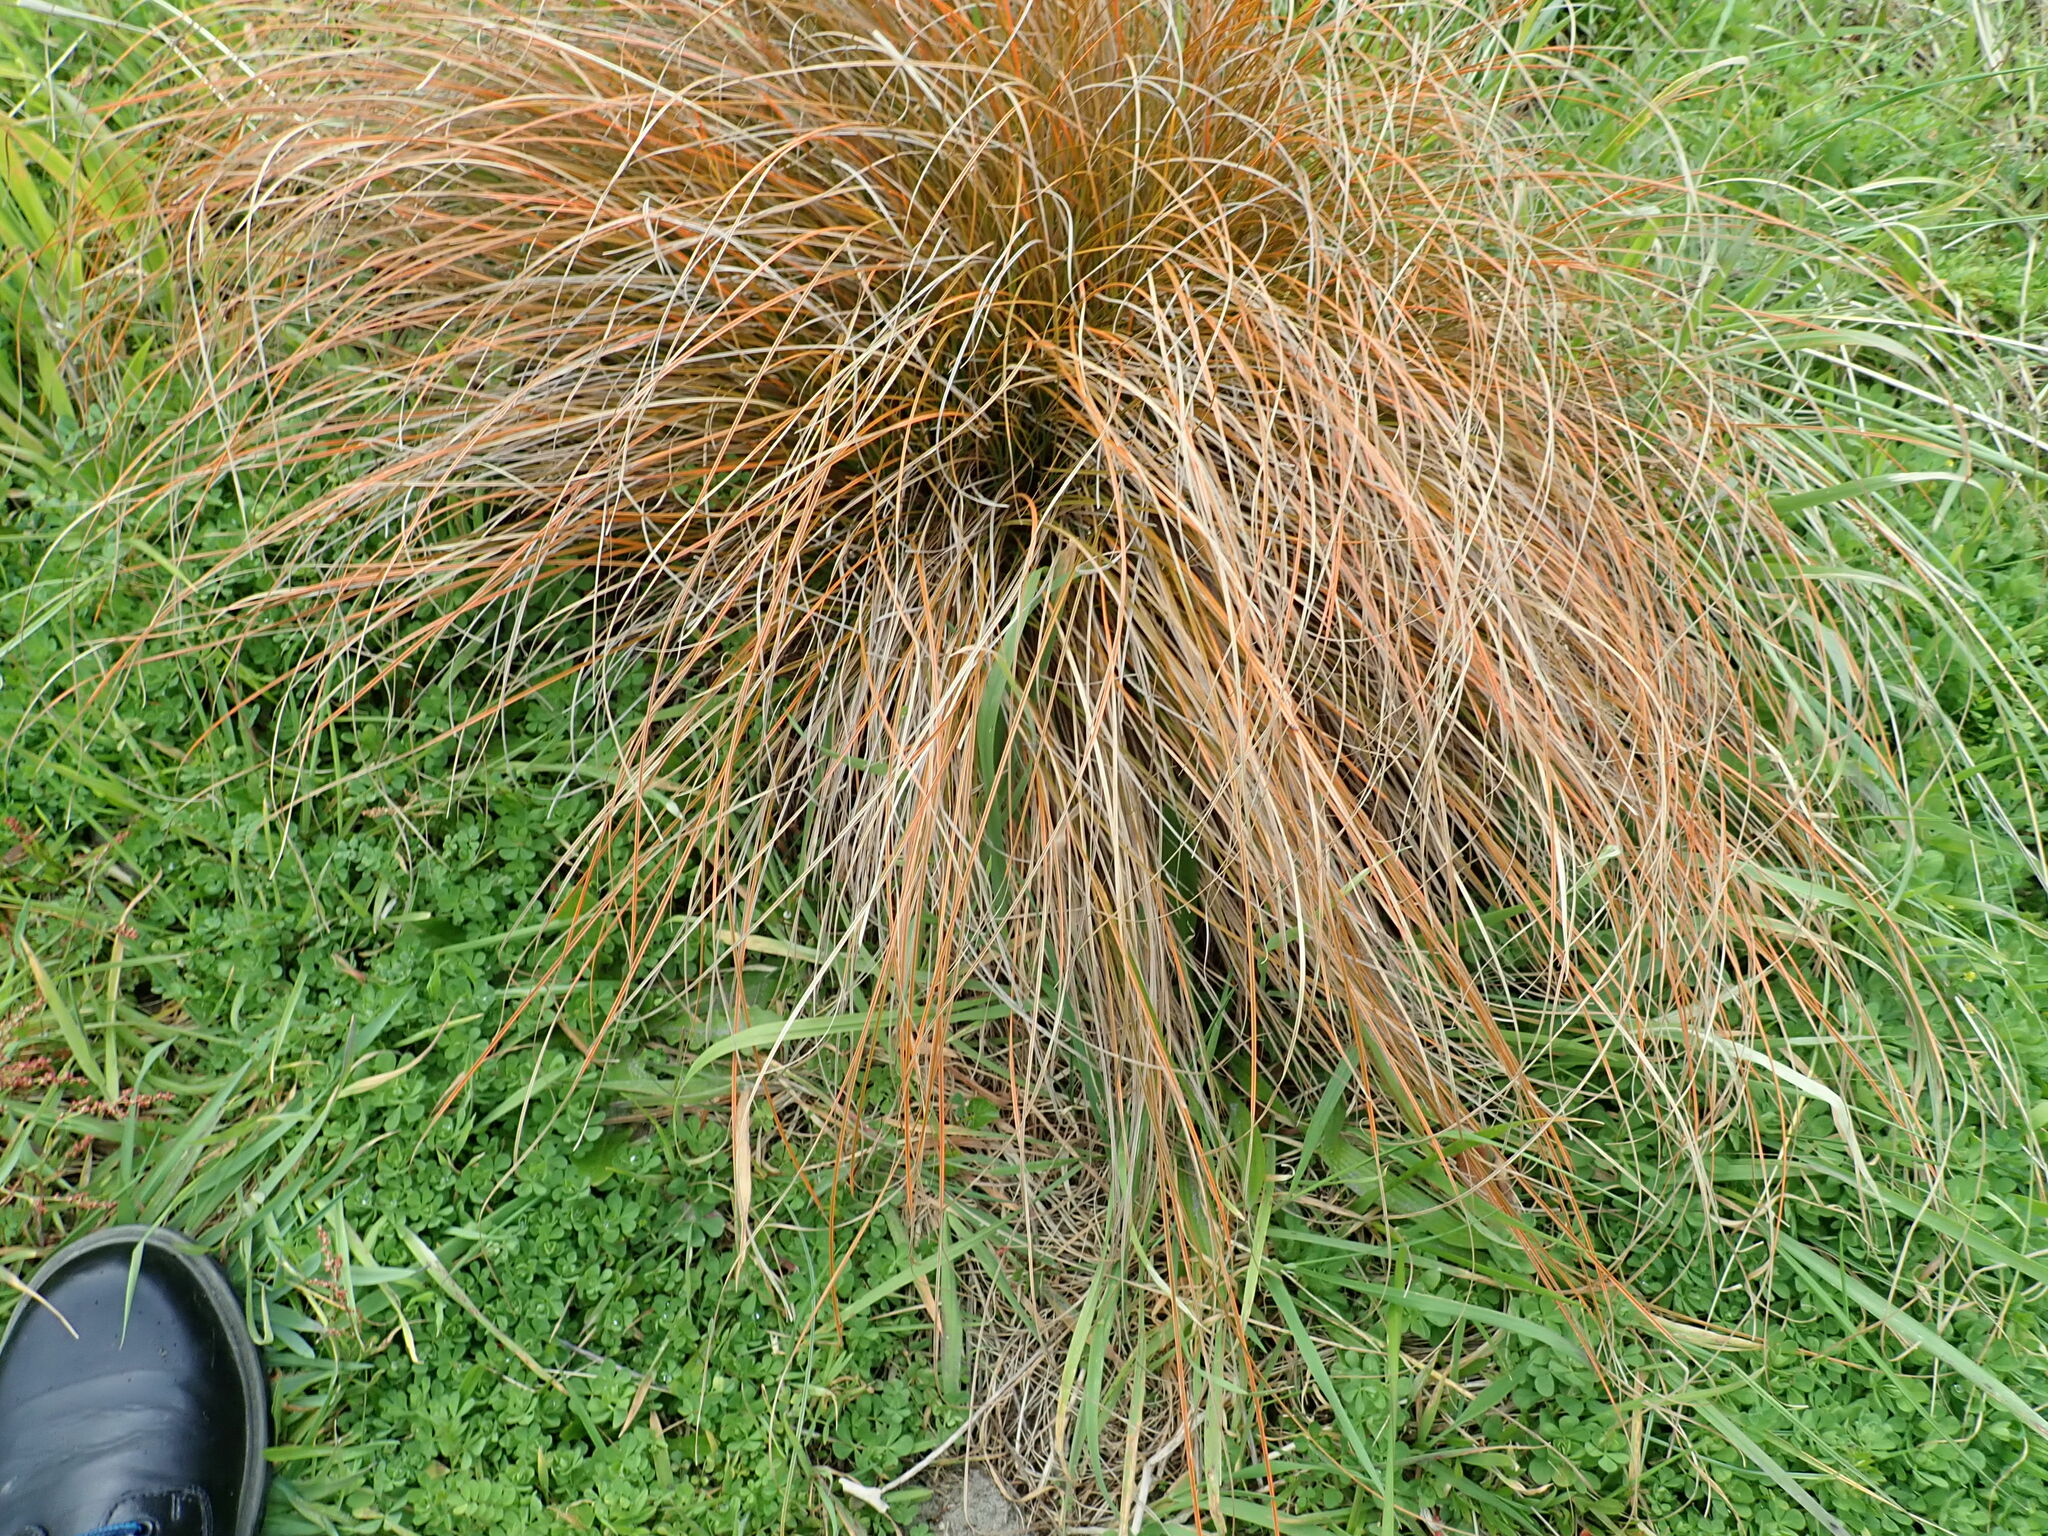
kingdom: Plantae
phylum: Tracheophyta
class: Liliopsida
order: Poales
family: Cyperaceae
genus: Carex
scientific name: Carex testacea
